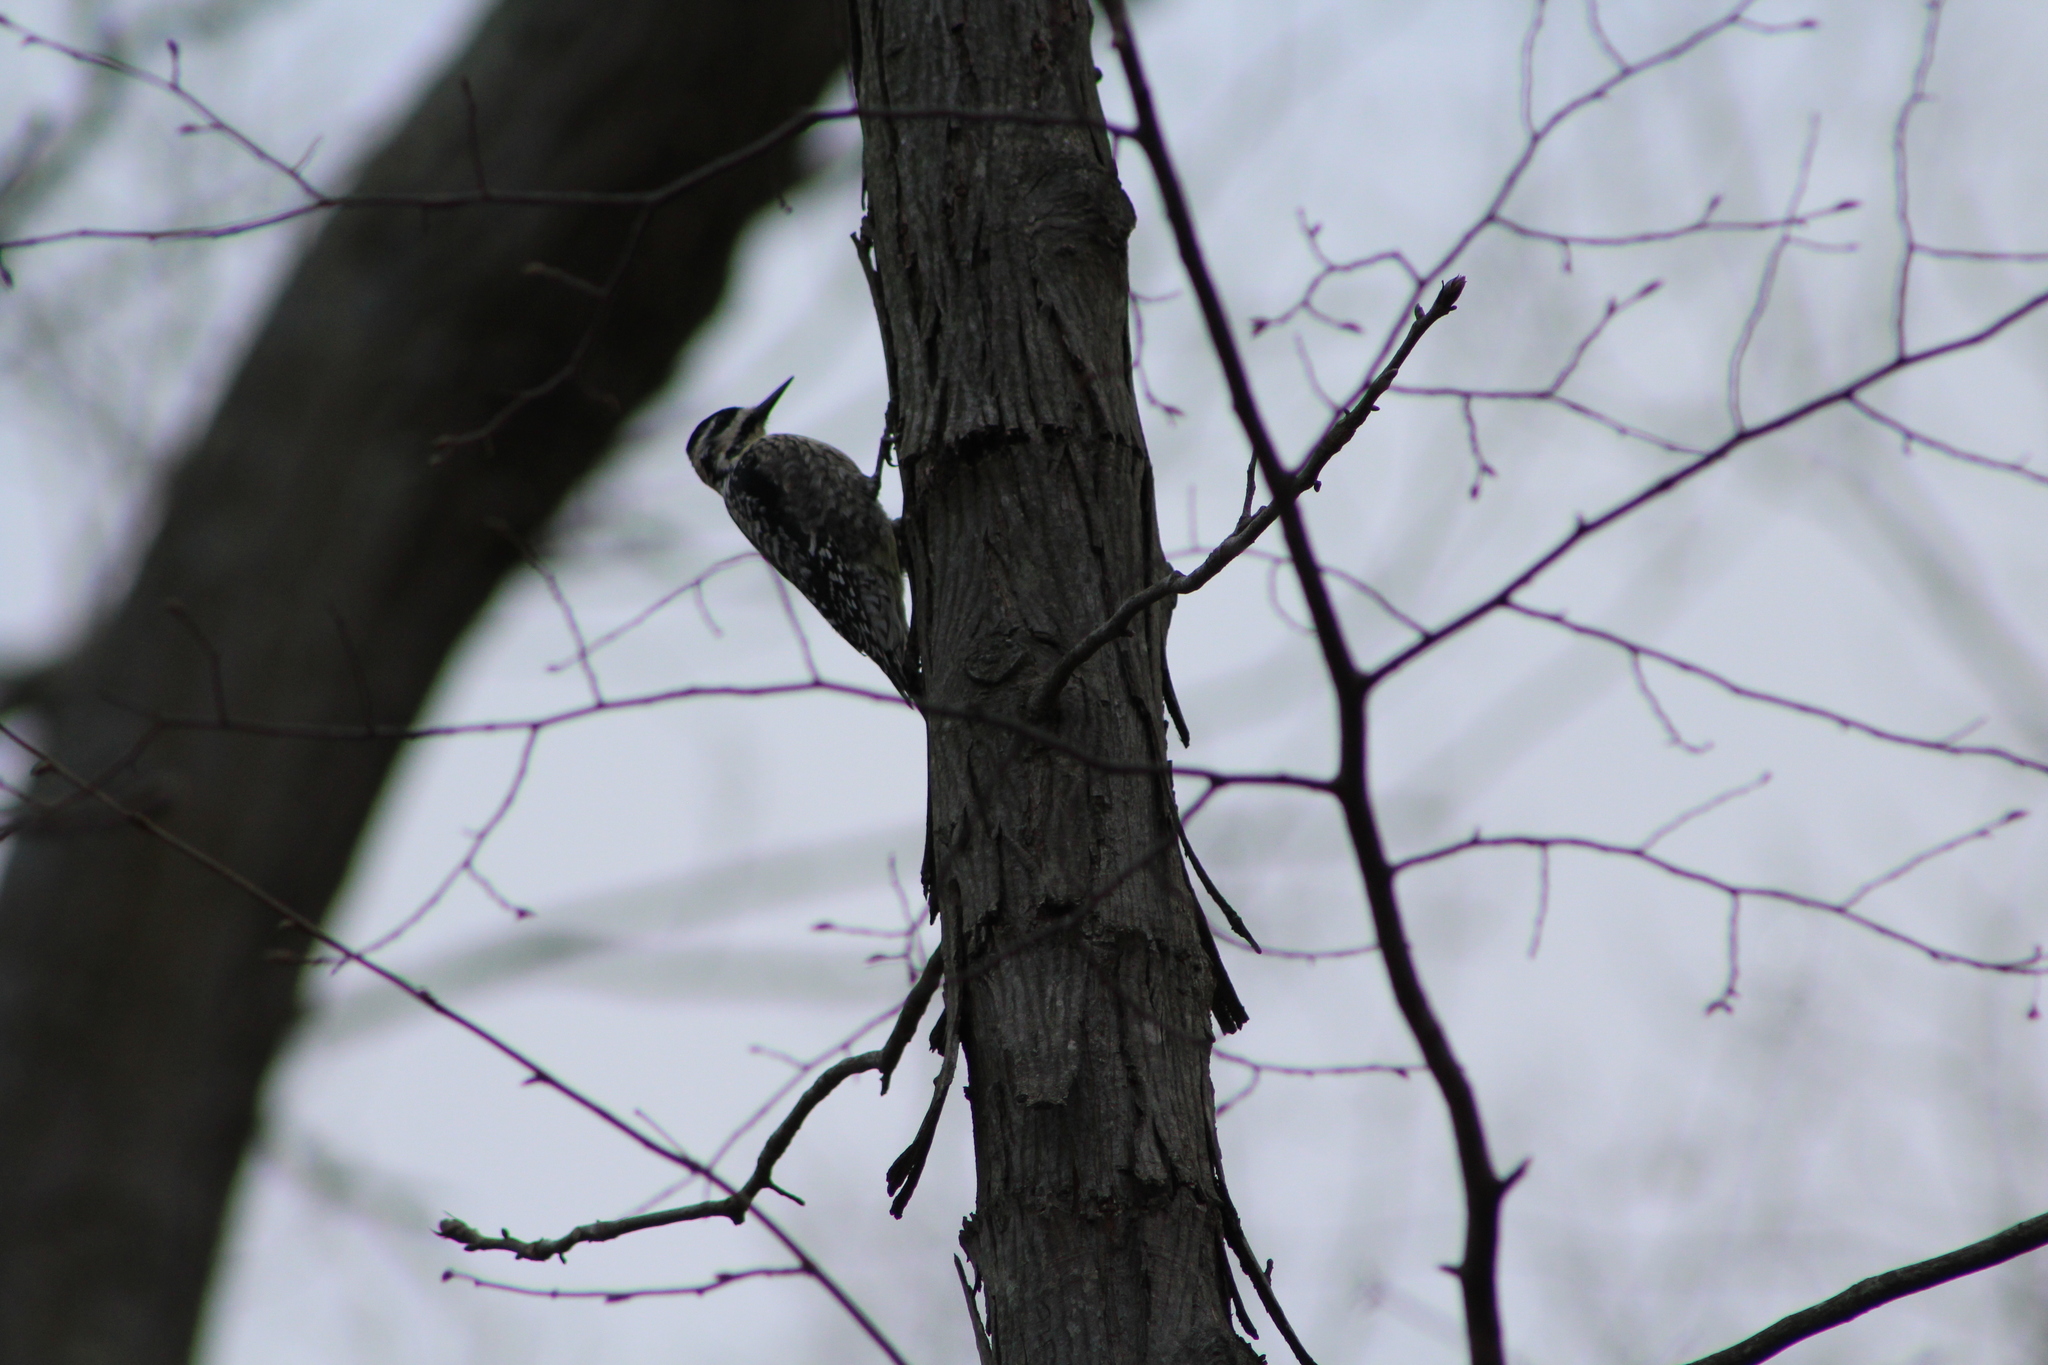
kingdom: Animalia
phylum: Chordata
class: Aves
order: Piciformes
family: Picidae
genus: Sphyrapicus
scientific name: Sphyrapicus varius
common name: Yellow-bellied sapsucker
